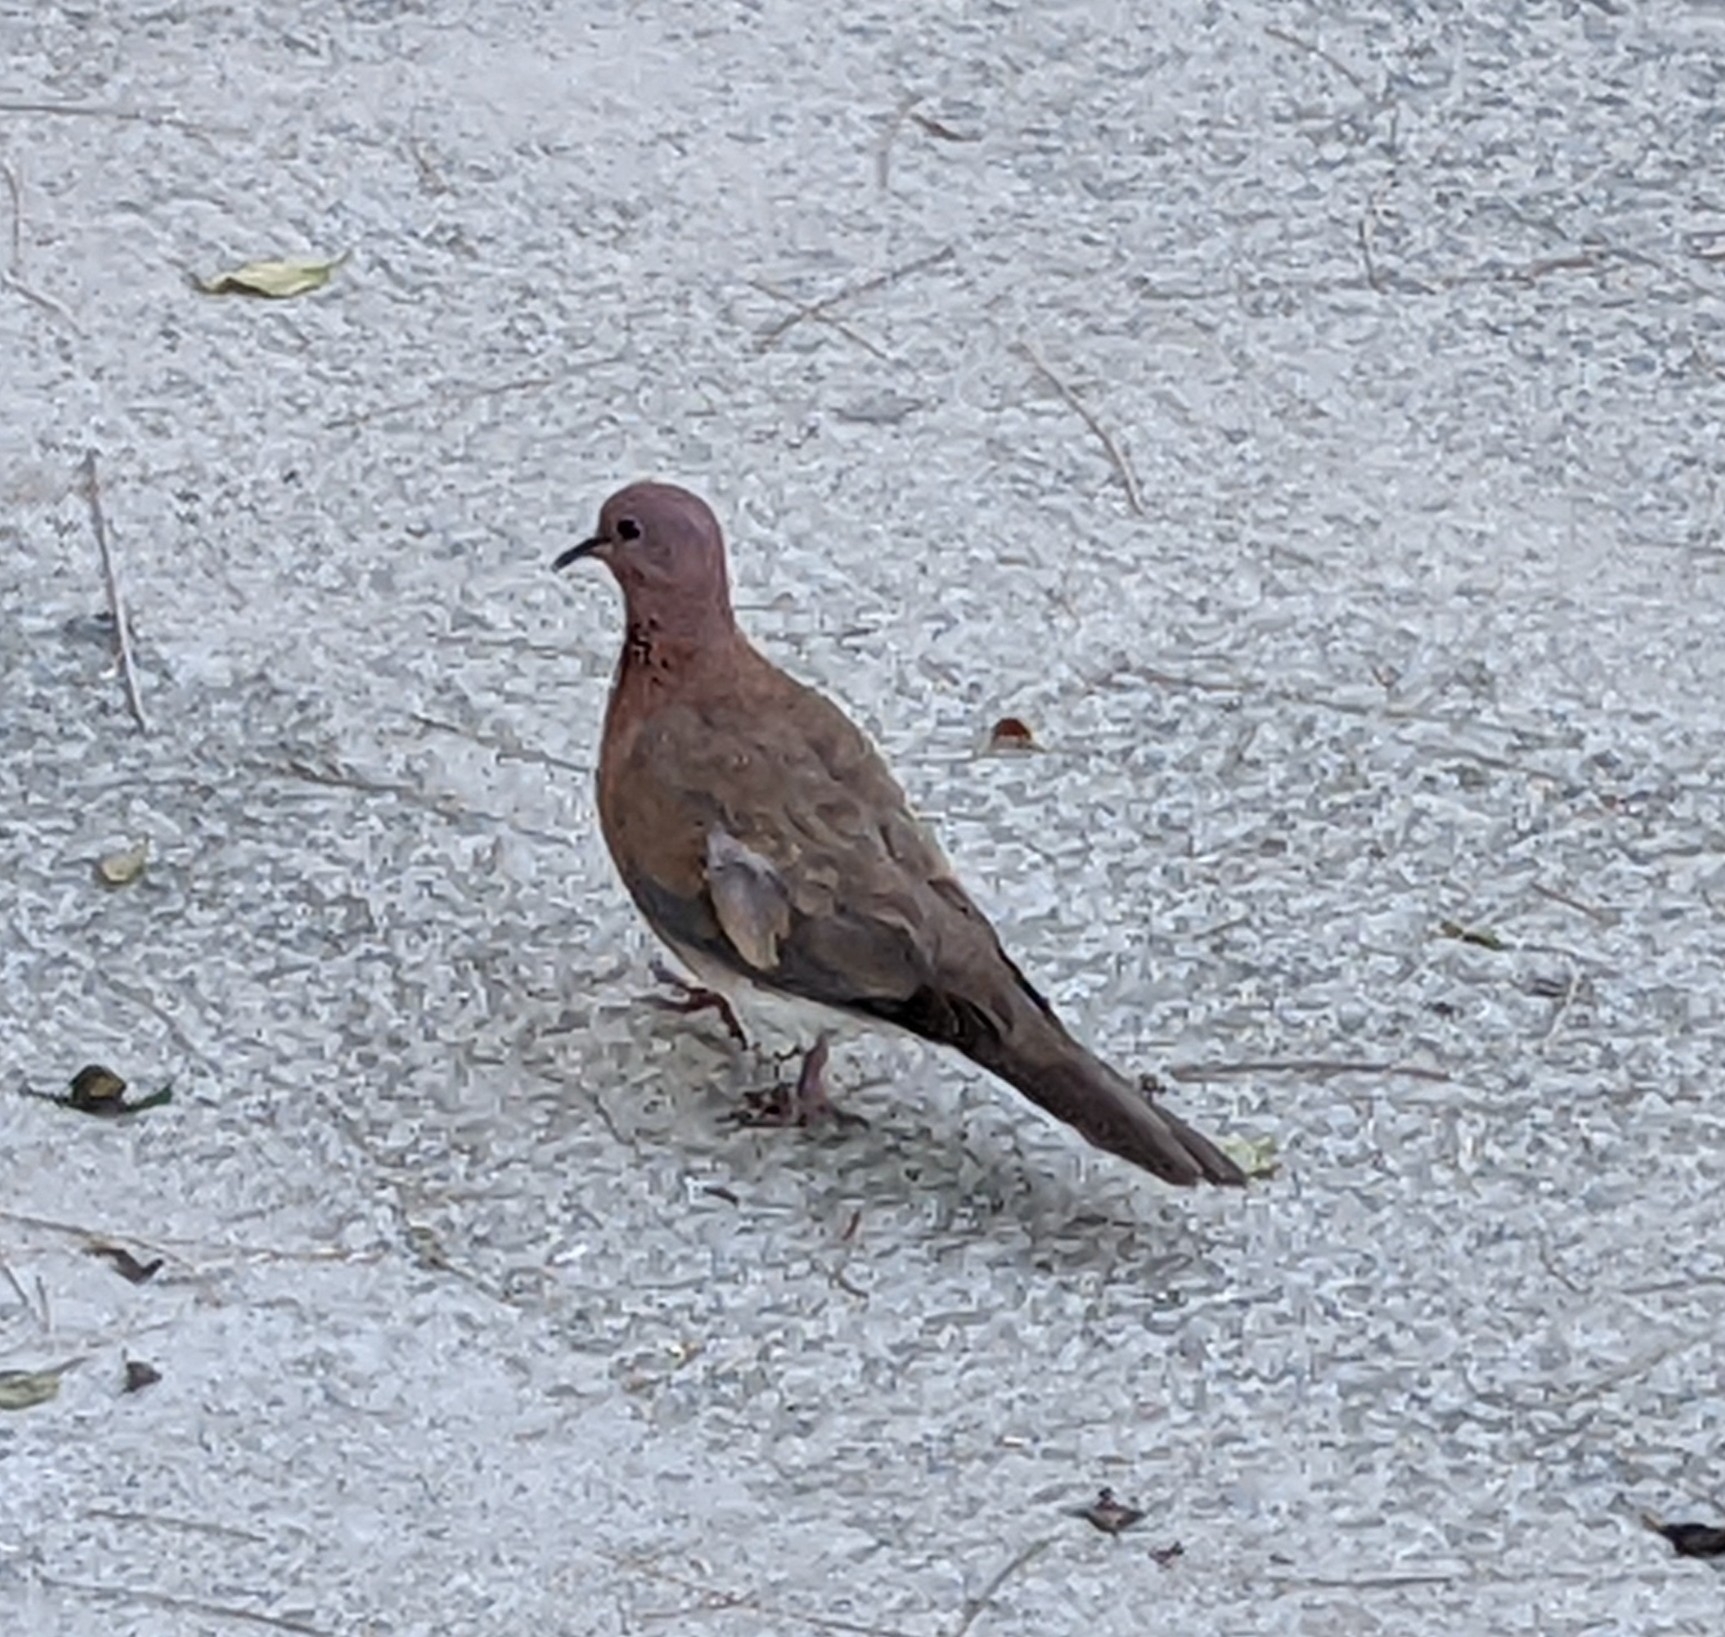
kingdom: Animalia
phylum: Chordata
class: Aves
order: Columbiformes
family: Columbidae
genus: Spilopelia
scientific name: Spilopelia senegalensis
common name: Laughing dove
